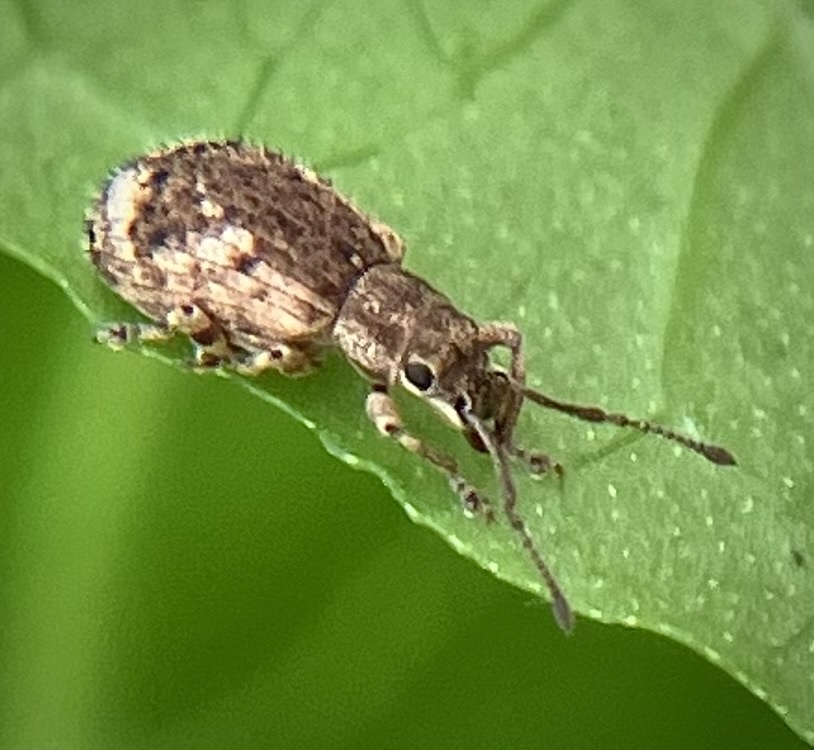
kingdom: Animalia
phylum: Arthropoda
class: Insecta
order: Coleoptera
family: Curculionidae
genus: Pseudoedophrys
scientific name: Pseudoedophrys hilleri
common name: Weevil
